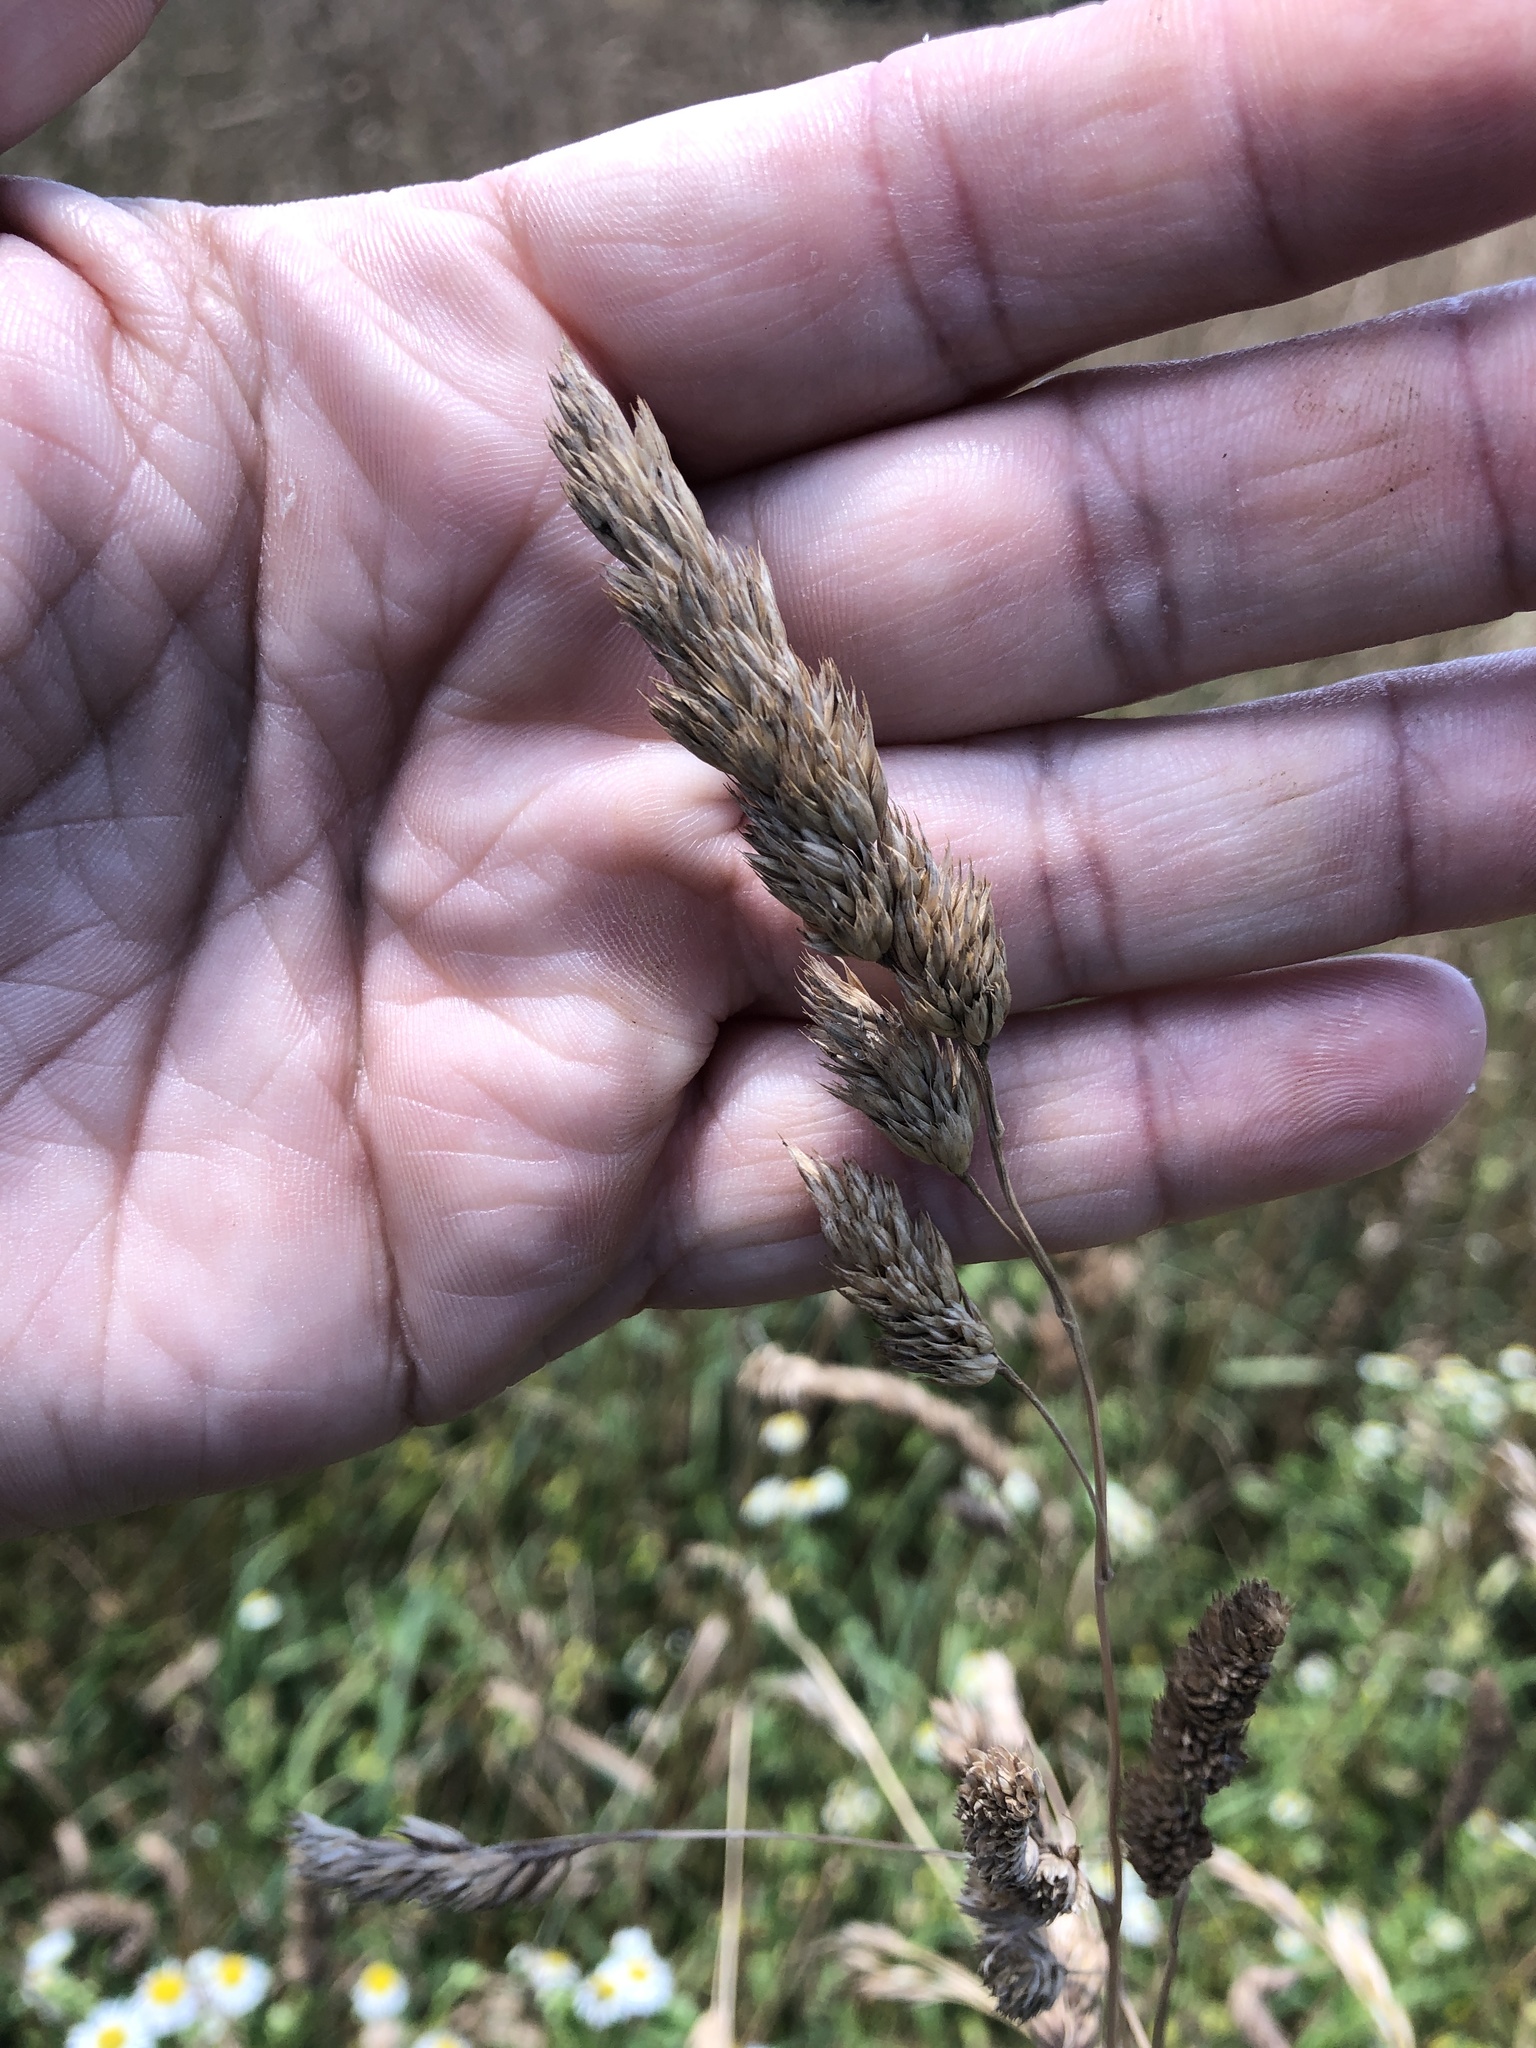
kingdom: Plantae
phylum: Tracheophyta
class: Liliopsida
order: Poales
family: Poaceae
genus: Dactylis
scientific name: Dactylis glomerata
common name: Orchardgrass
